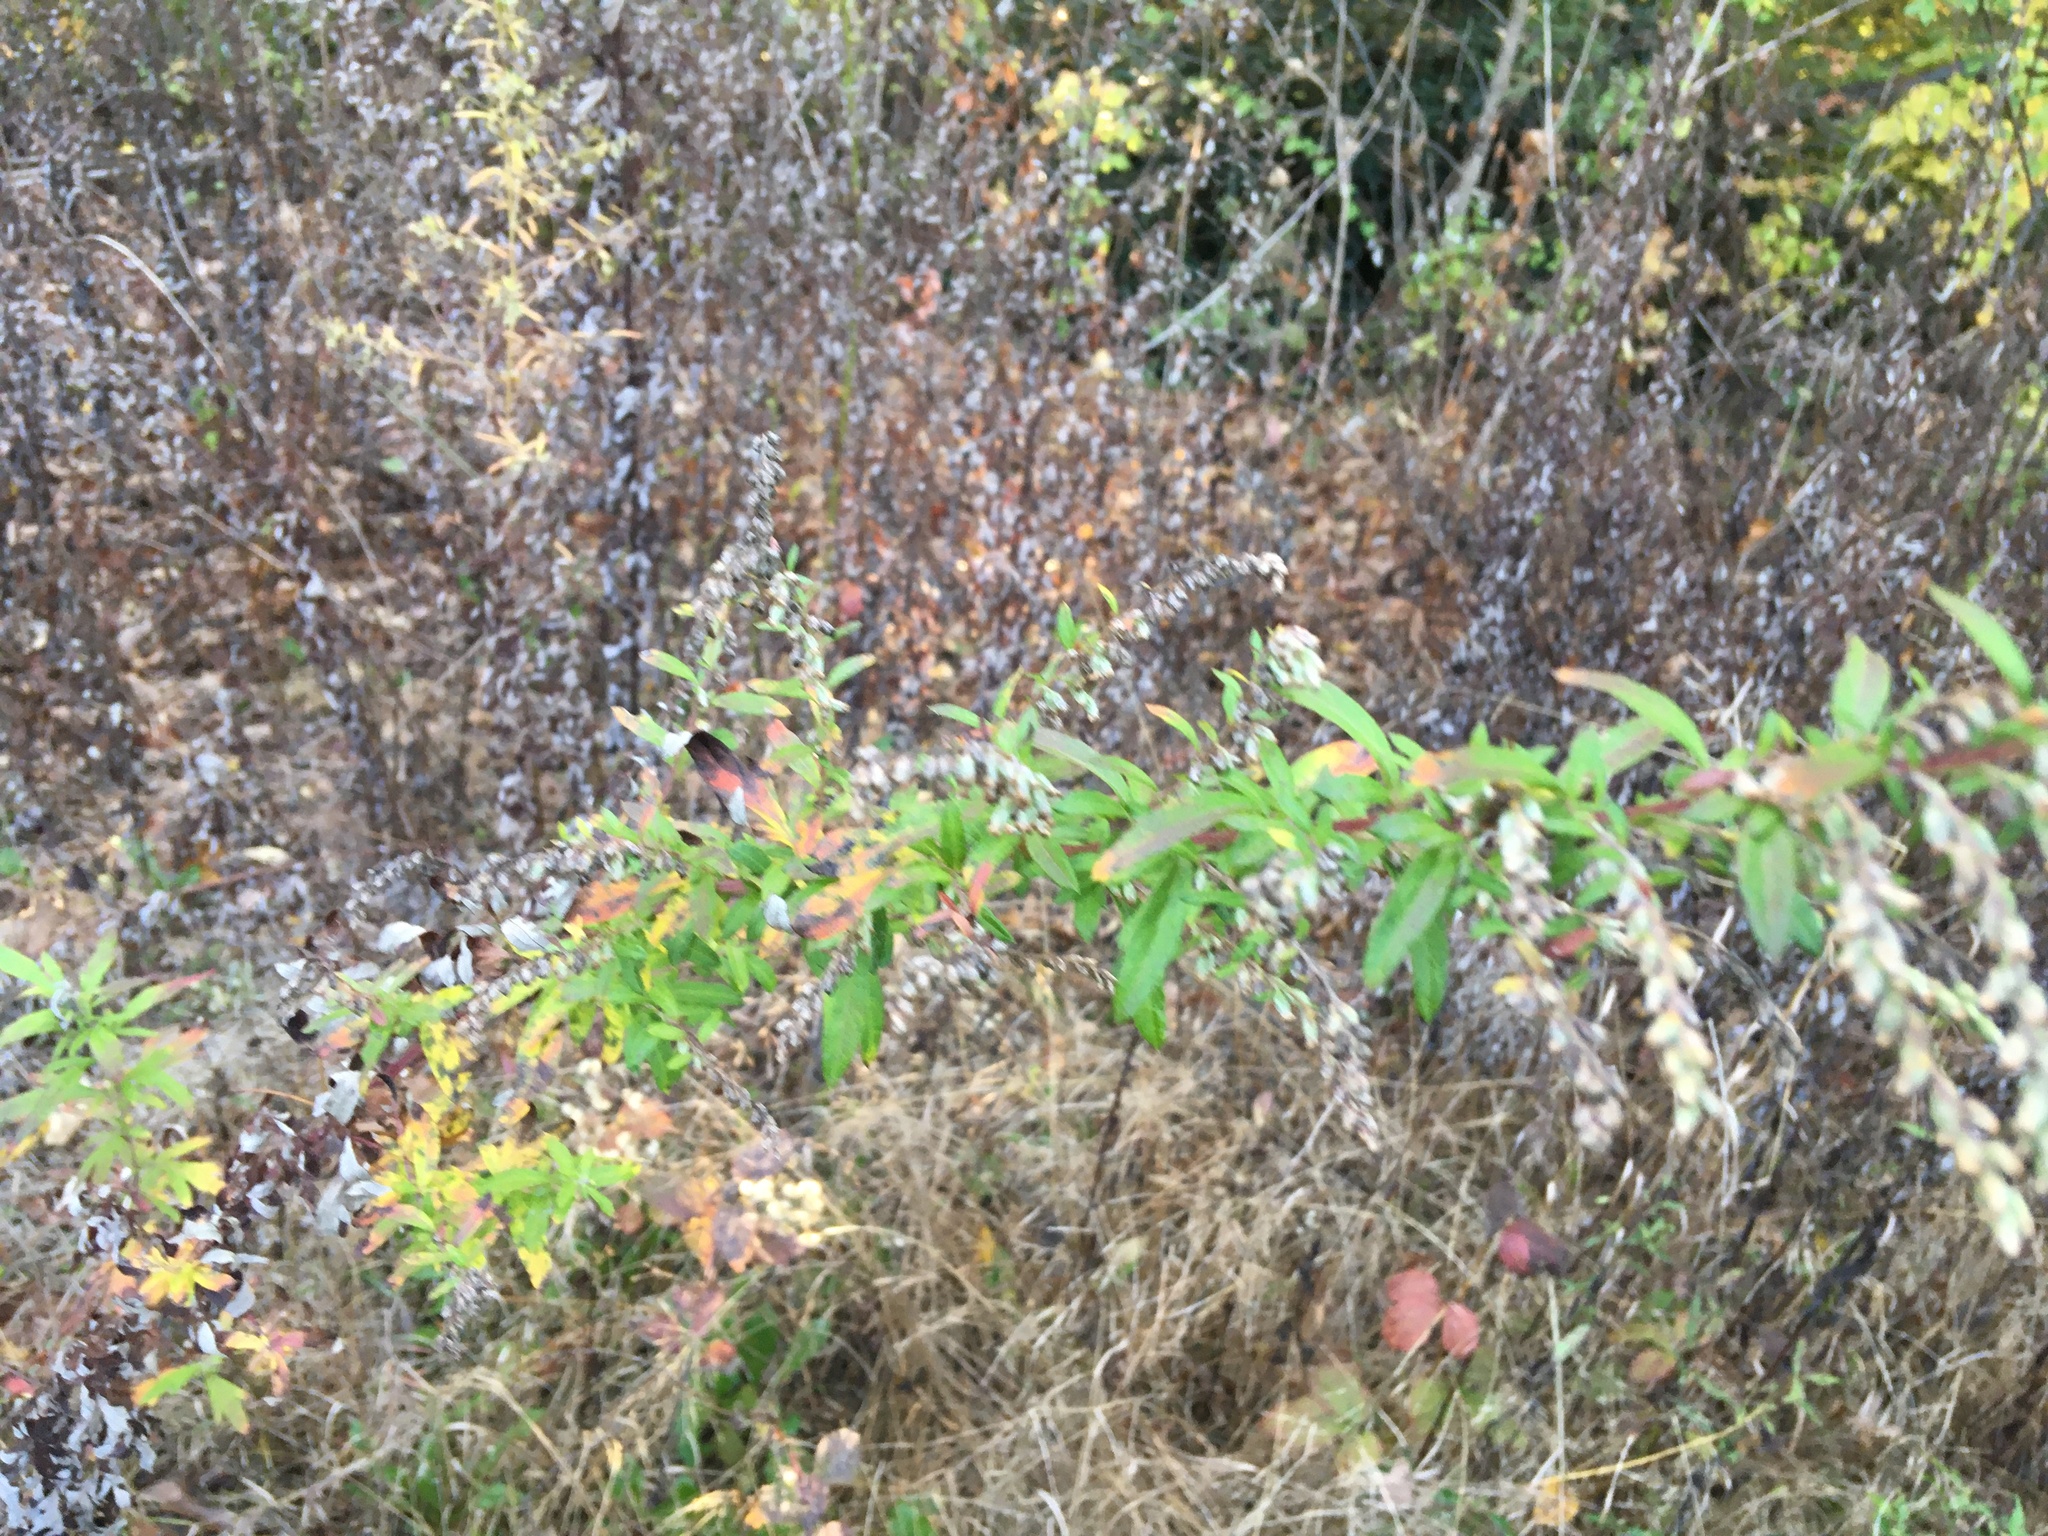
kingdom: Plantae
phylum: Tracheophyta
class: Magnoliopsida
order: Asterales
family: Asteraceae
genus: Artemisia
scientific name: Artemisia vulgaris
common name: Mugwort
